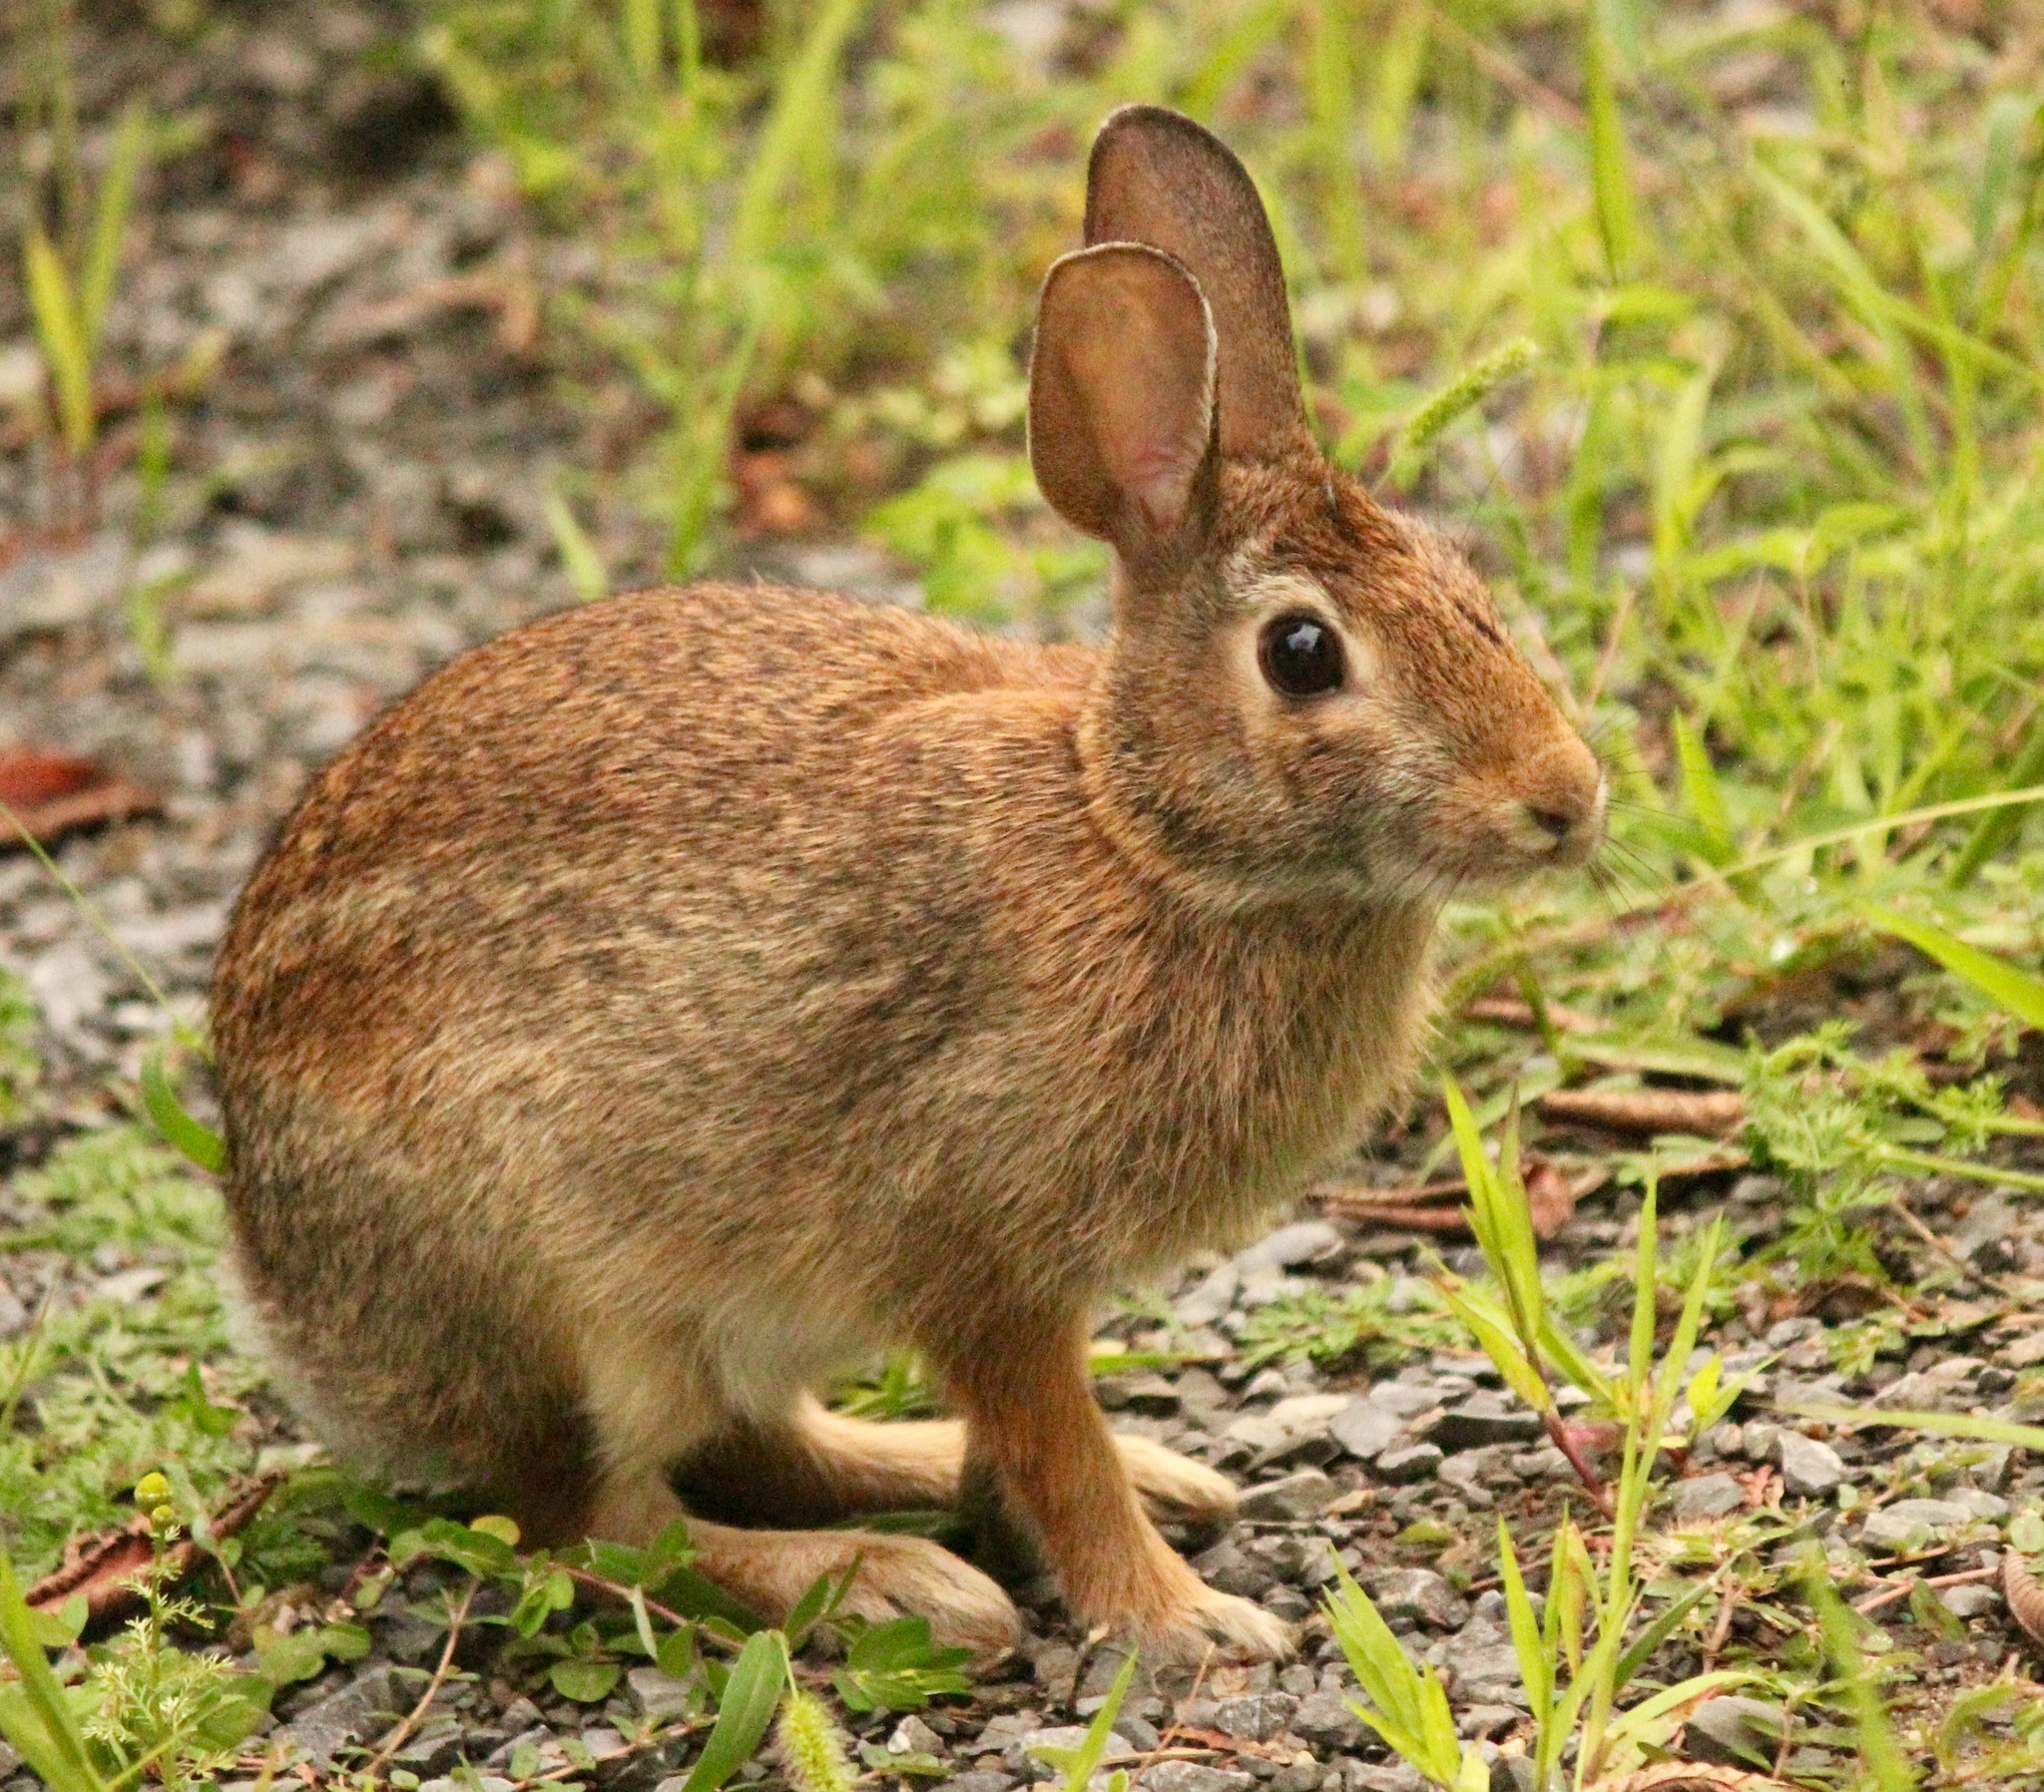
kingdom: Animalia
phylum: Chordata
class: Mammalia
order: Lagomorpha
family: Leporidae
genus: Sylvilagus
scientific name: Sylvilagus floridanus
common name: Eastern cottontail
